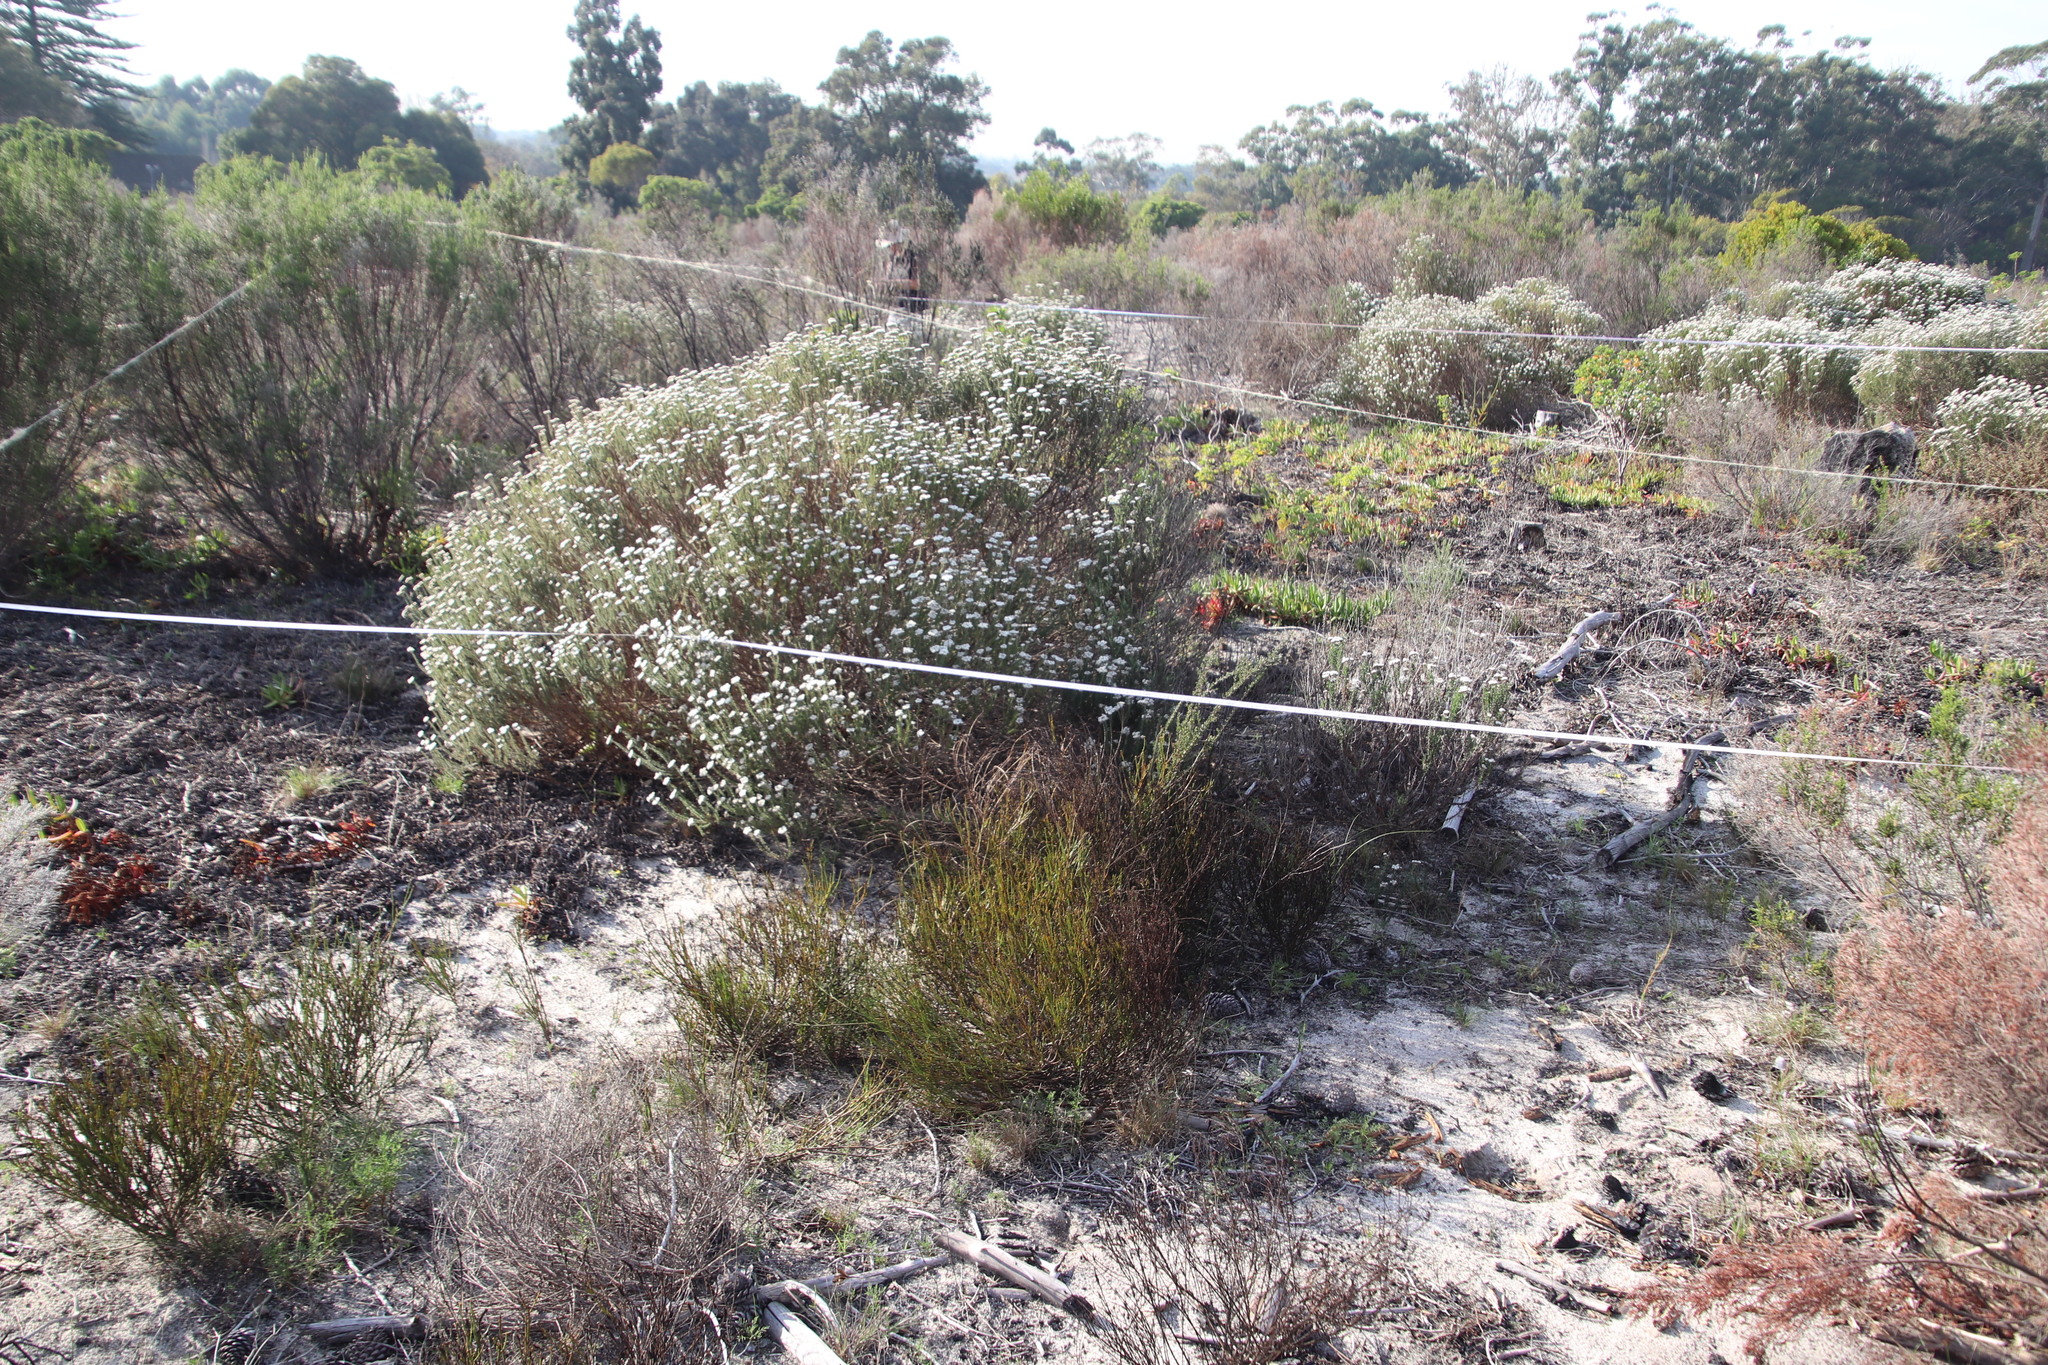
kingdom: Plantae
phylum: Tracheophyta
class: Magnoliopsida
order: Santalales
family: Thesiaceae
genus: Thesium
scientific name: Thesium aggregatum
